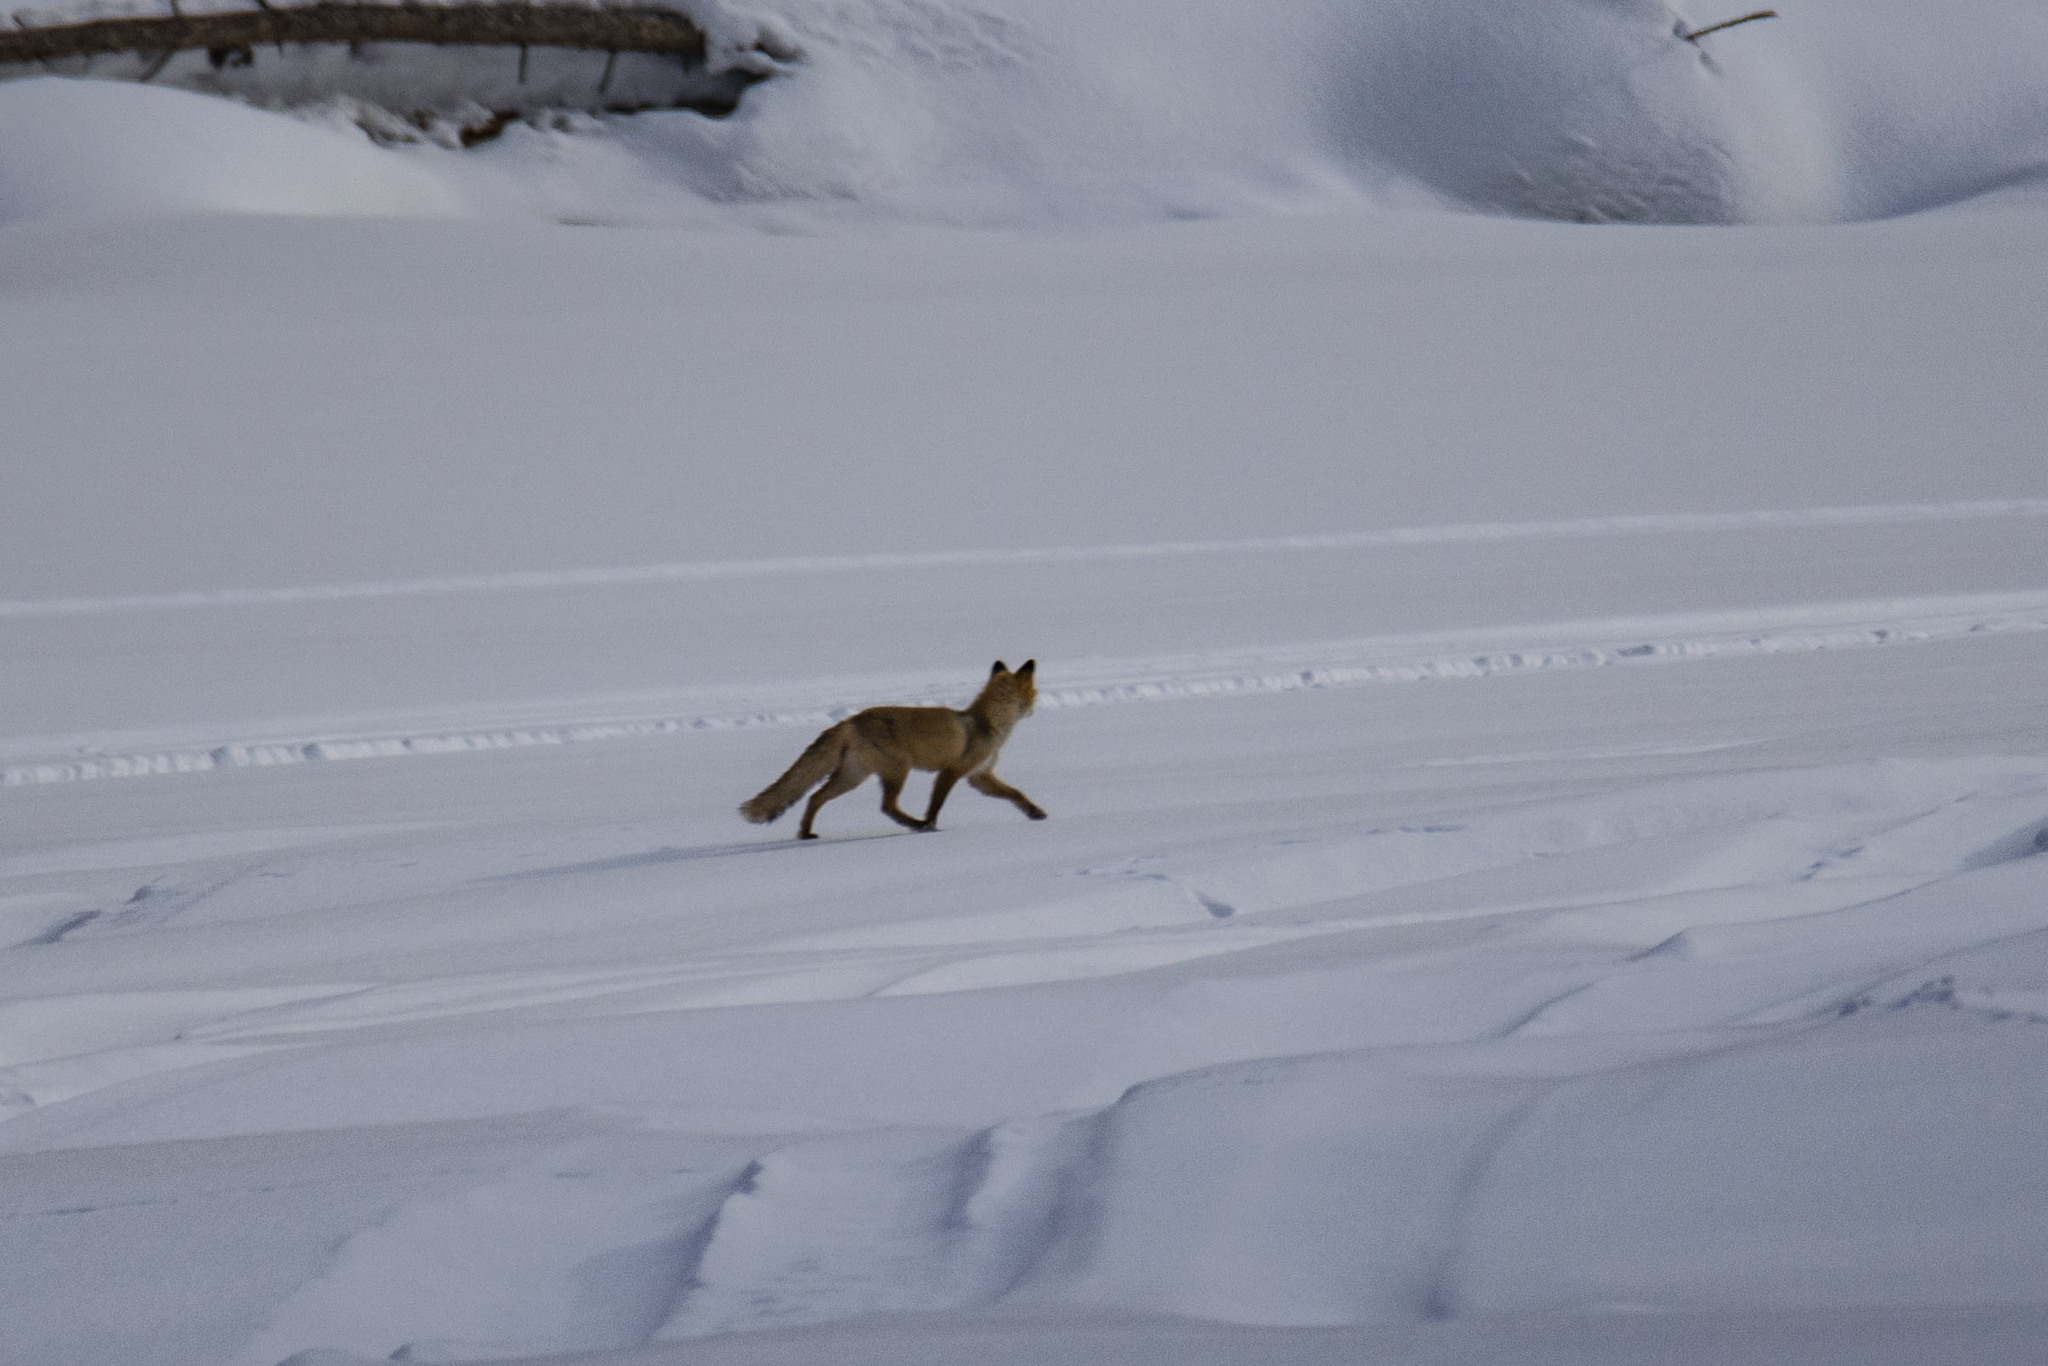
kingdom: Animalia
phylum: Chordata
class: Mammalia
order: Carnivora
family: Canidae
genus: Vulpes
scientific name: Vulpes vulpes
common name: Red fox
